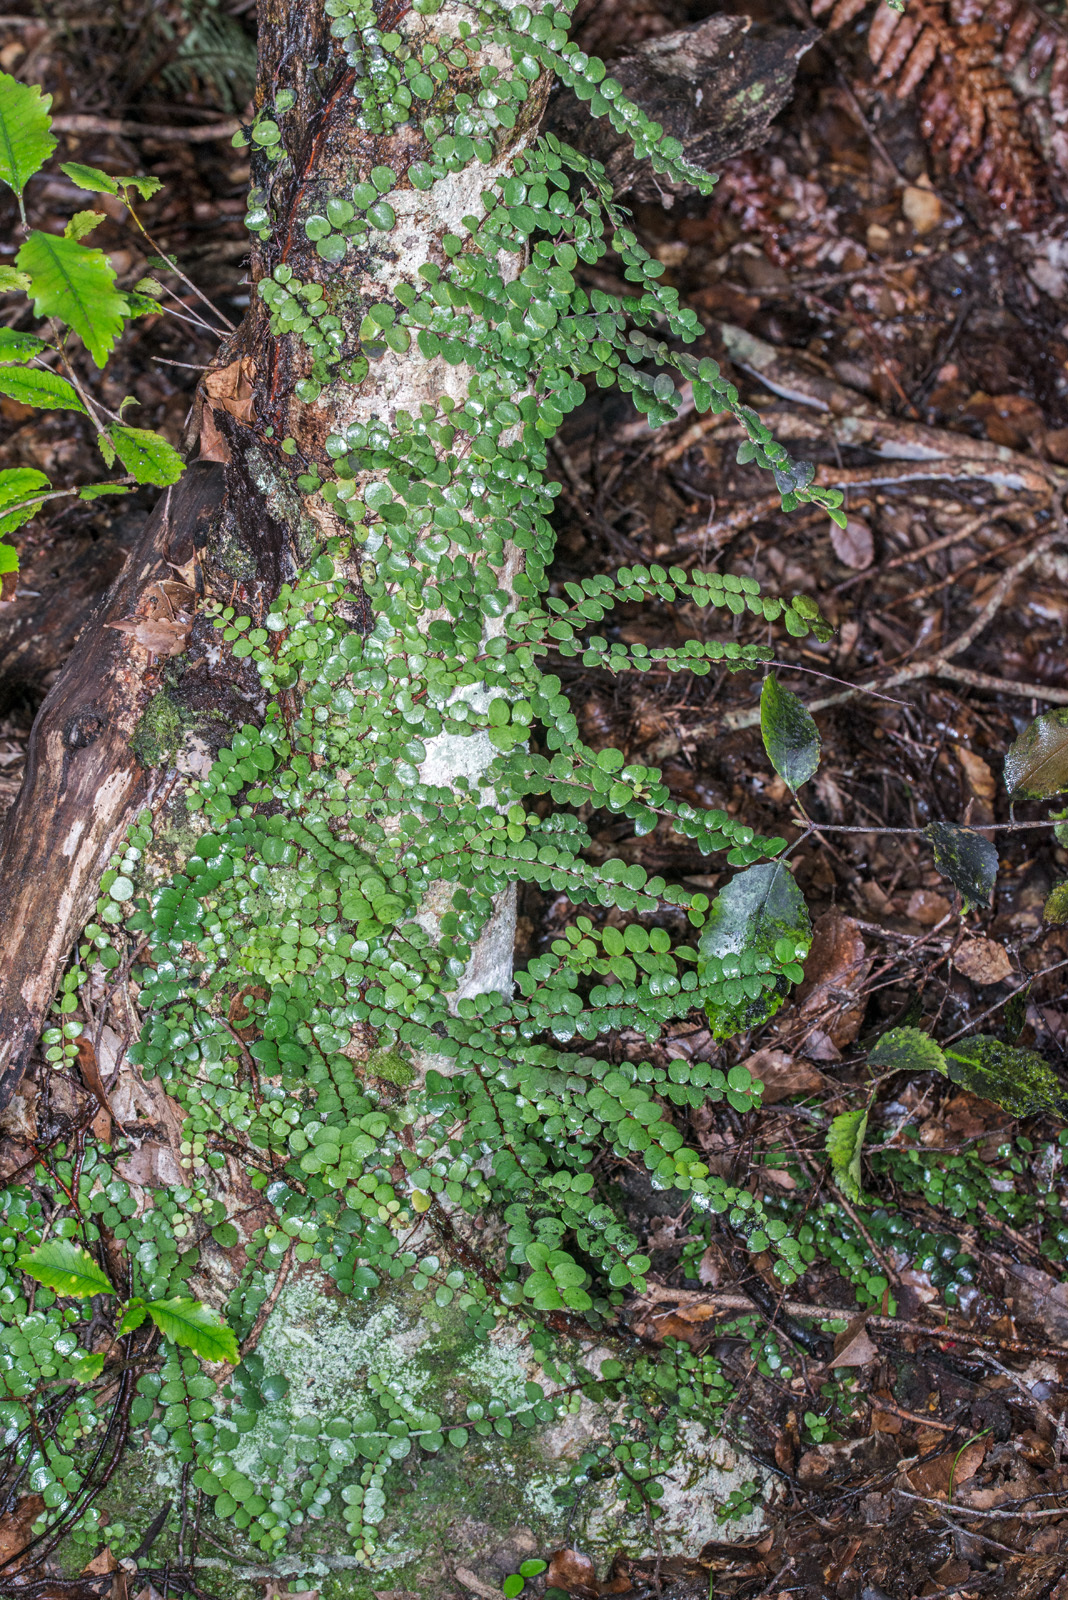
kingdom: Plantae
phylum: Tracheophyta
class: Magnoliopsida
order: Myrtales
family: Myrtaceae
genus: Metrosideros
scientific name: Metrosideros perforata
